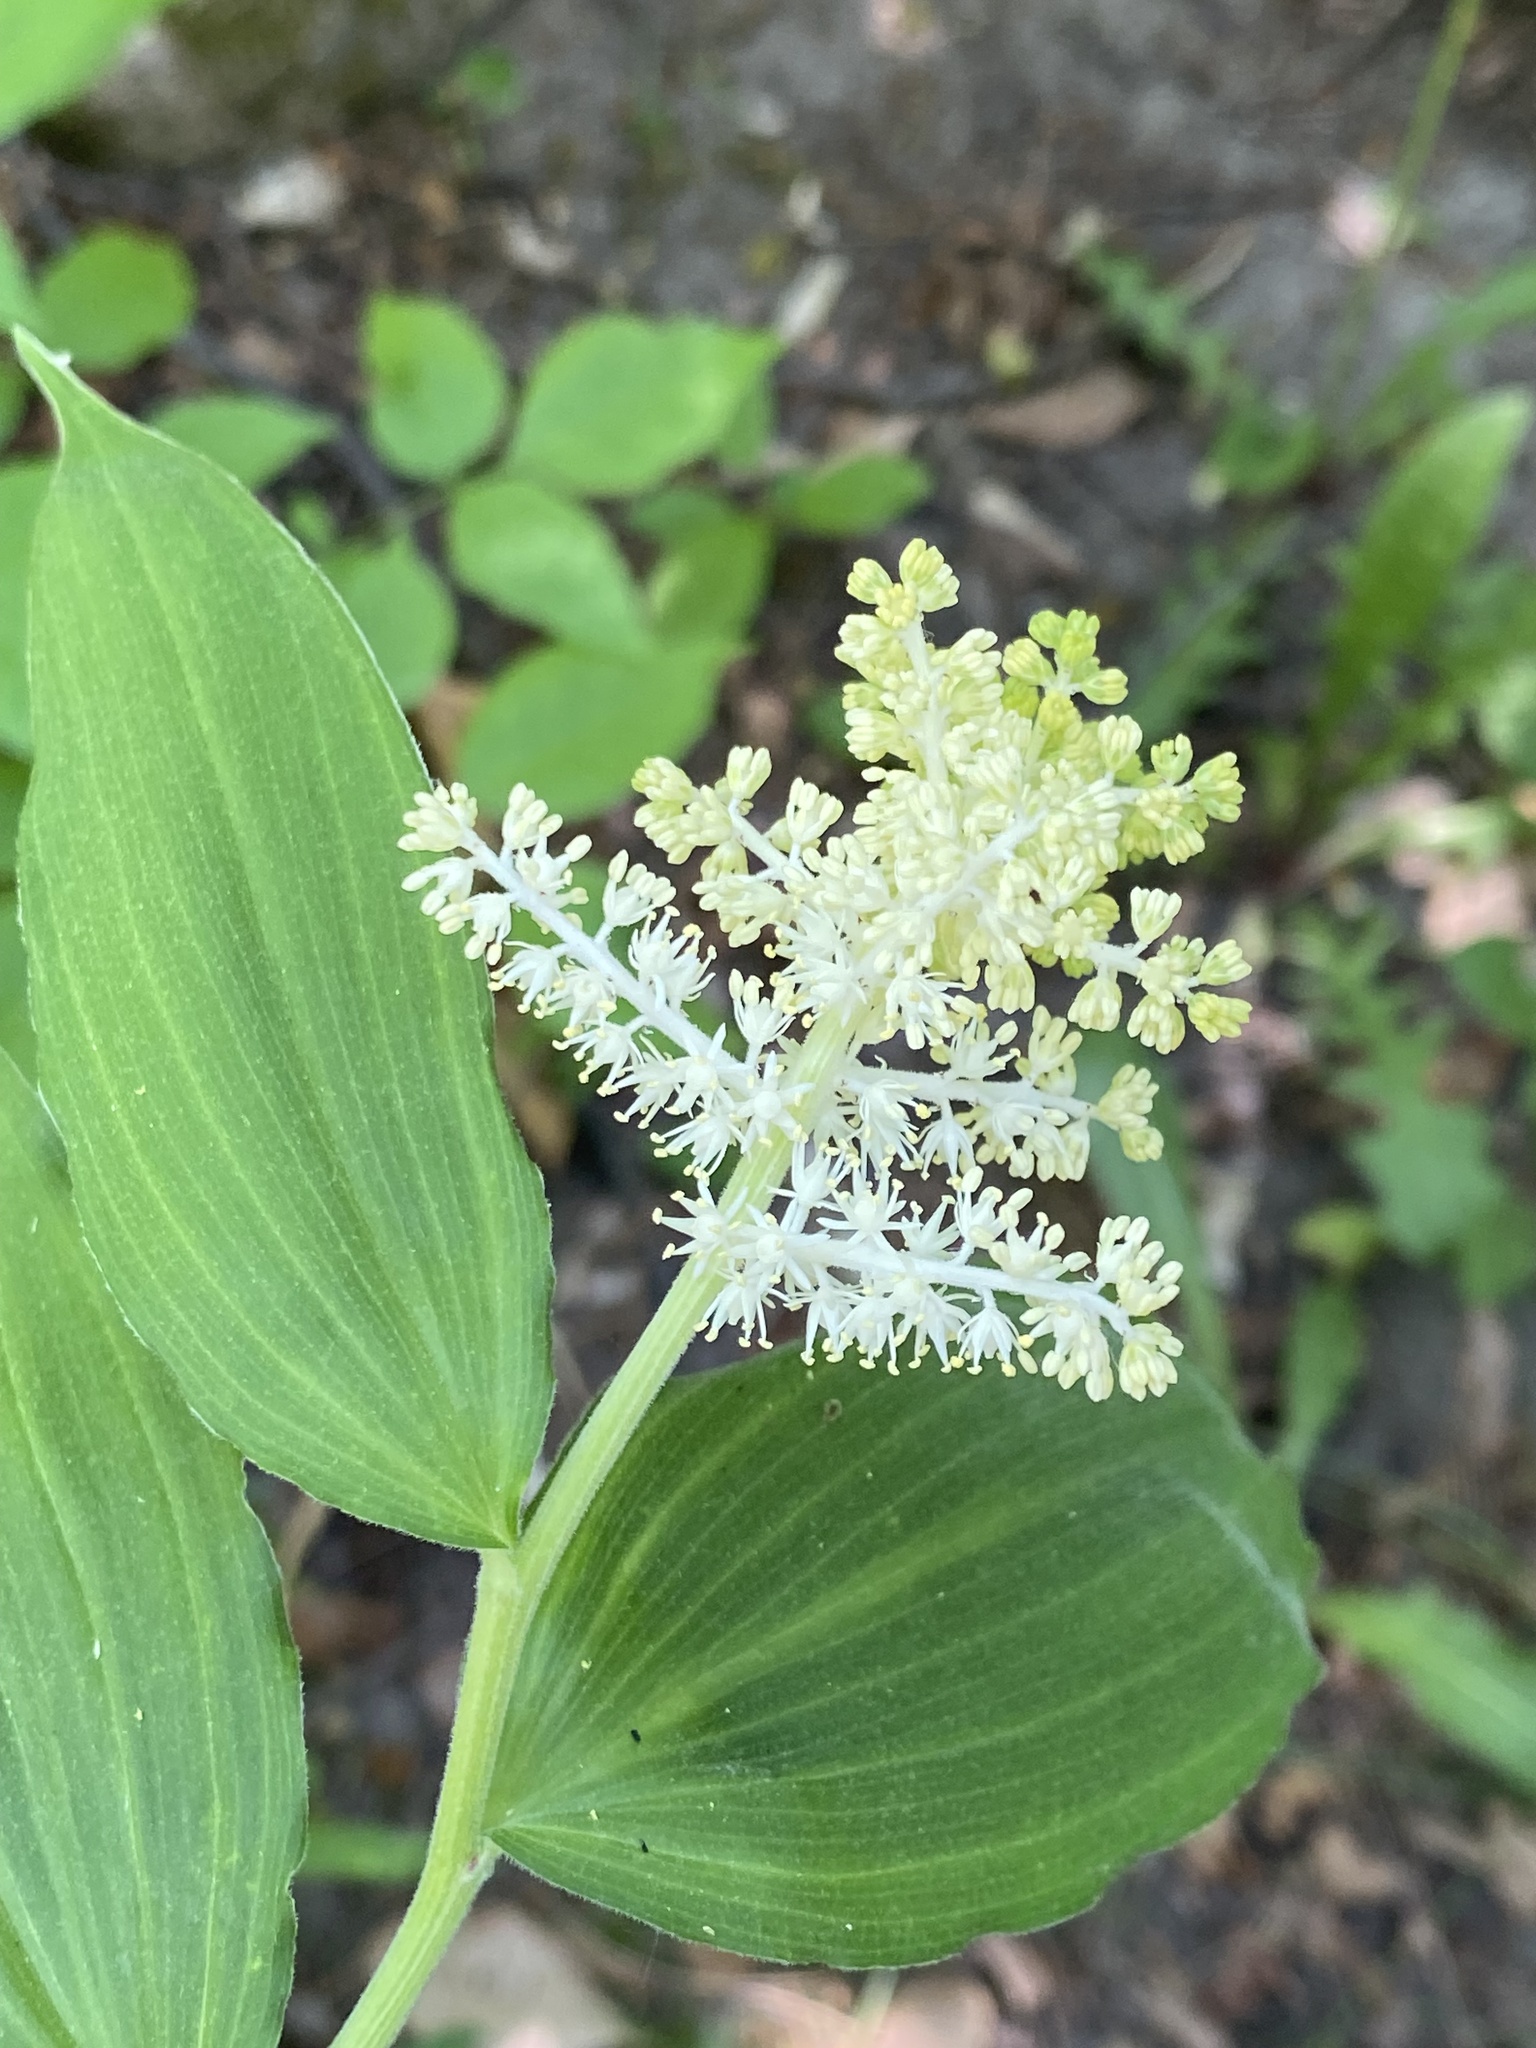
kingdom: Plantae
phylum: Tracheophyta
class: Liliopsida
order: Asparagales
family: Asparagaceae
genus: Maianthemum
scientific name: Maianthemum racemosum
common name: False spikenard
